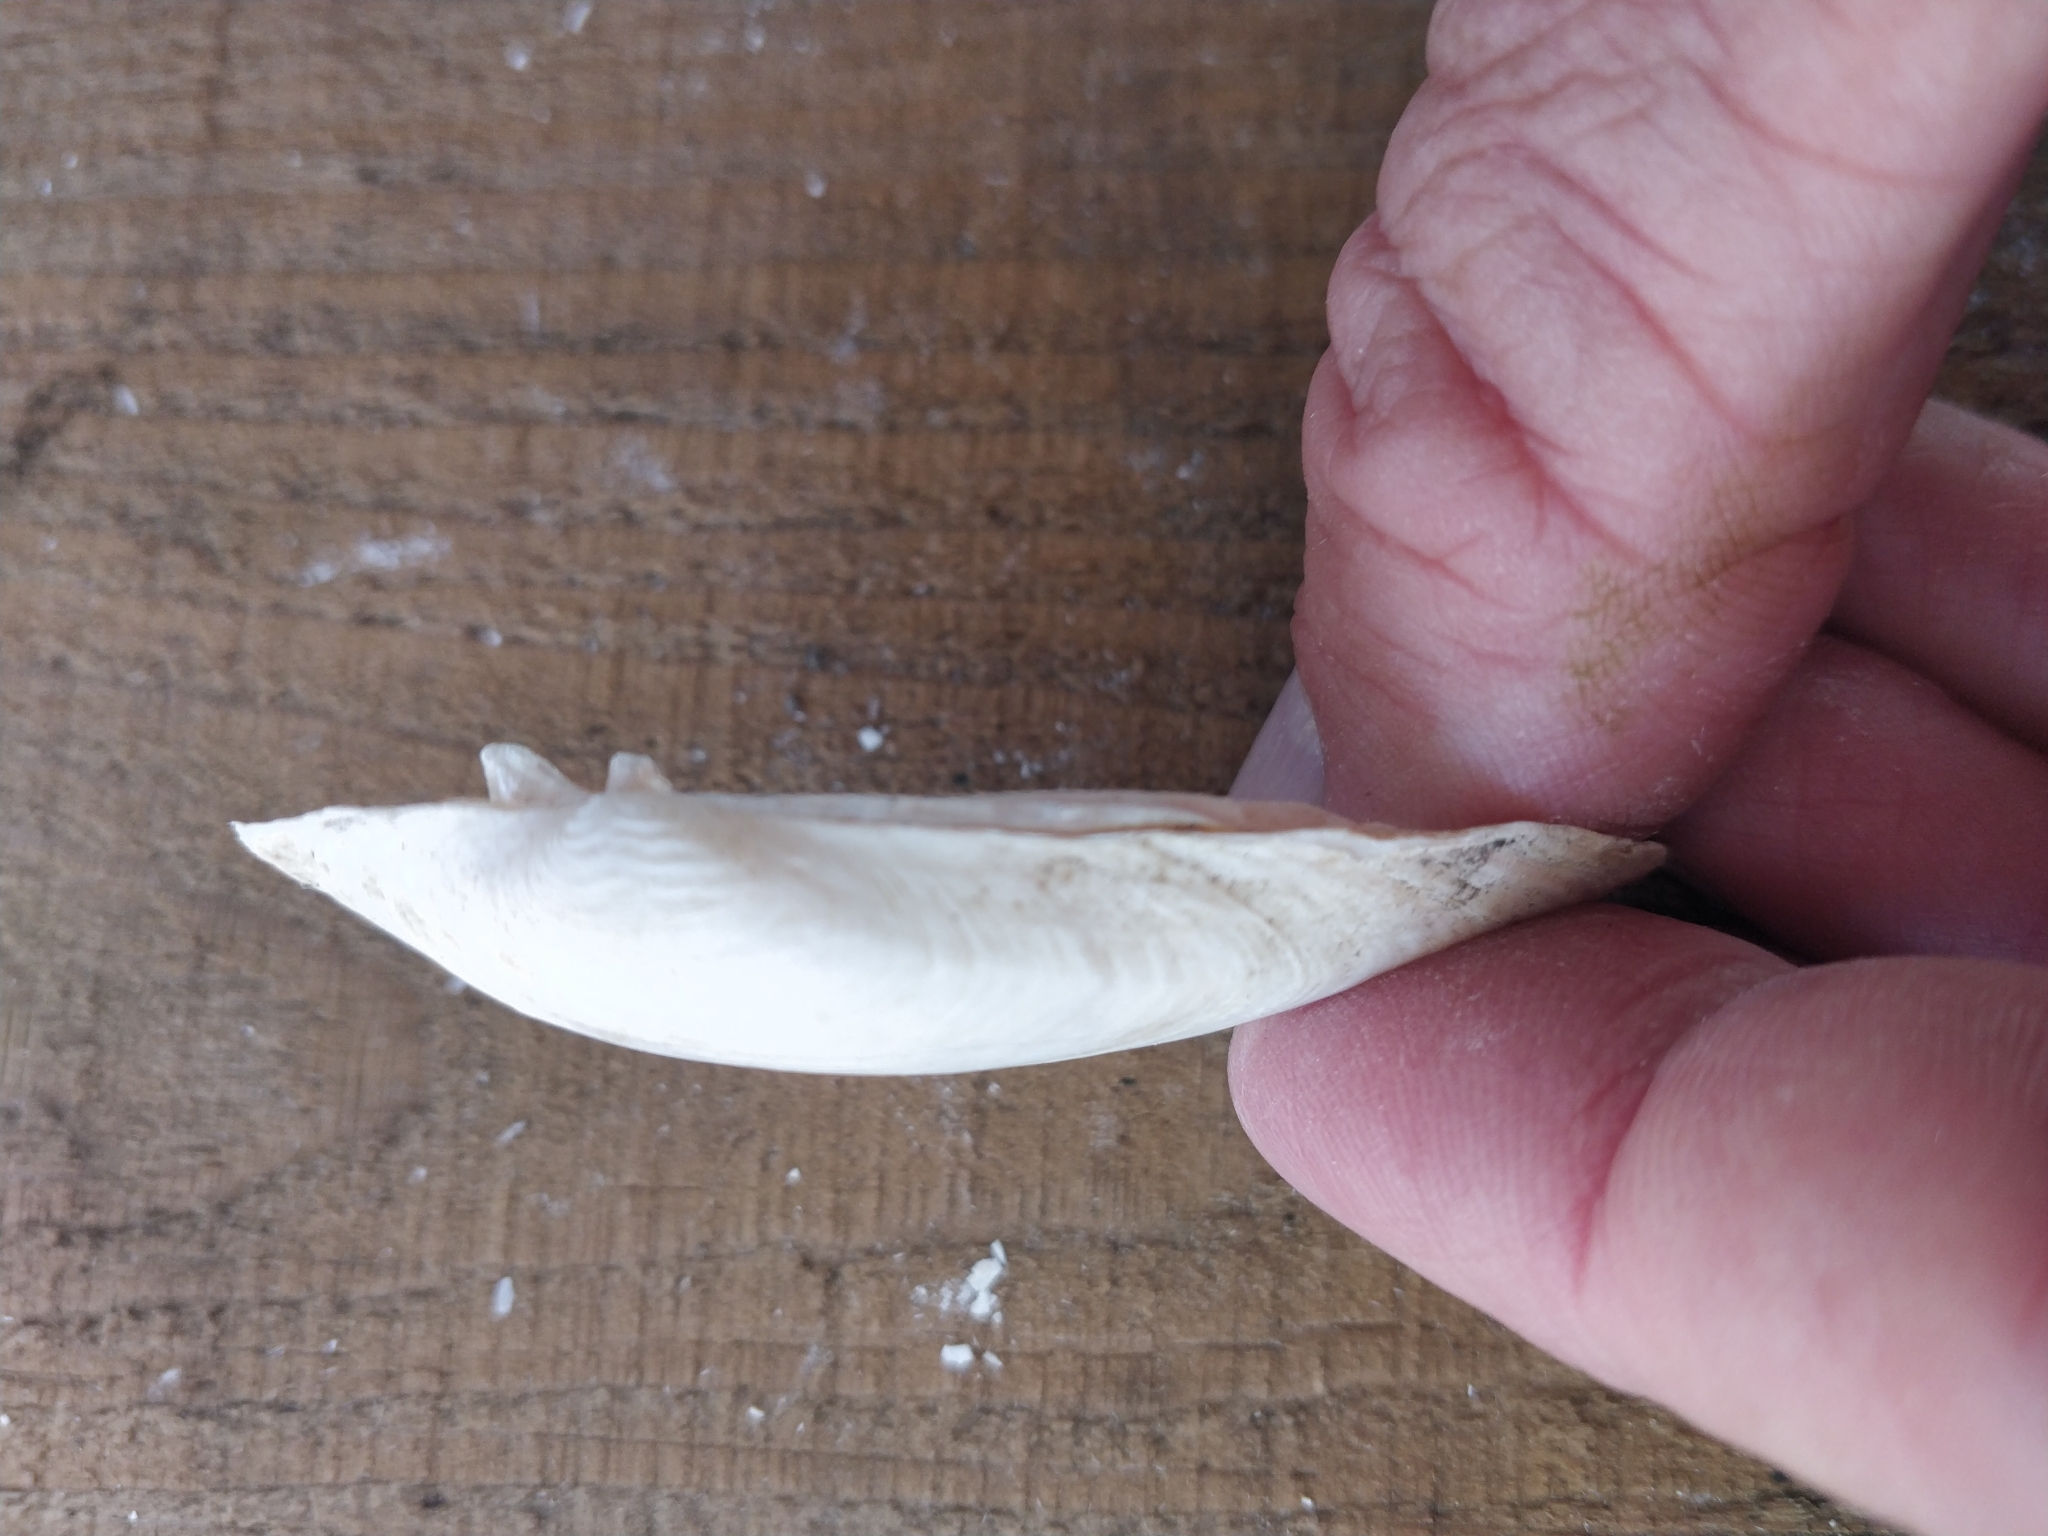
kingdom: Animalia
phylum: Mollusca
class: Bivalvia
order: Unionida
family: Unionidae
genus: Lampsilis
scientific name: Lampsilis siliquoidea
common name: Fatmucket
